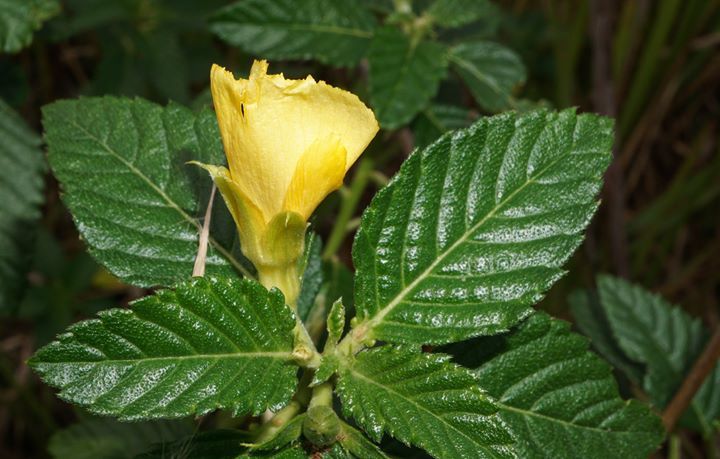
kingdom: Plantae
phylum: Tracheophyta
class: Magnoliopsida
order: Malpighiales
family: Turneraceae
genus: Turnera
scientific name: Turnera ulmifolia
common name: Ramgoat dashalong
